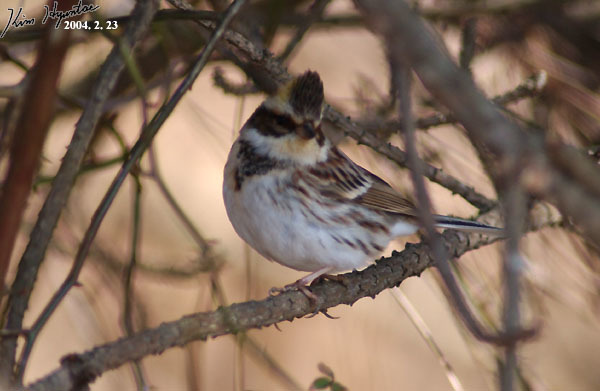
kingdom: Animalia
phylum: Chordata
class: Aves
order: Passeriformes
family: Emberizidae
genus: Emberiza
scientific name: Emberiza elegans
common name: Yellow-throated bunting
